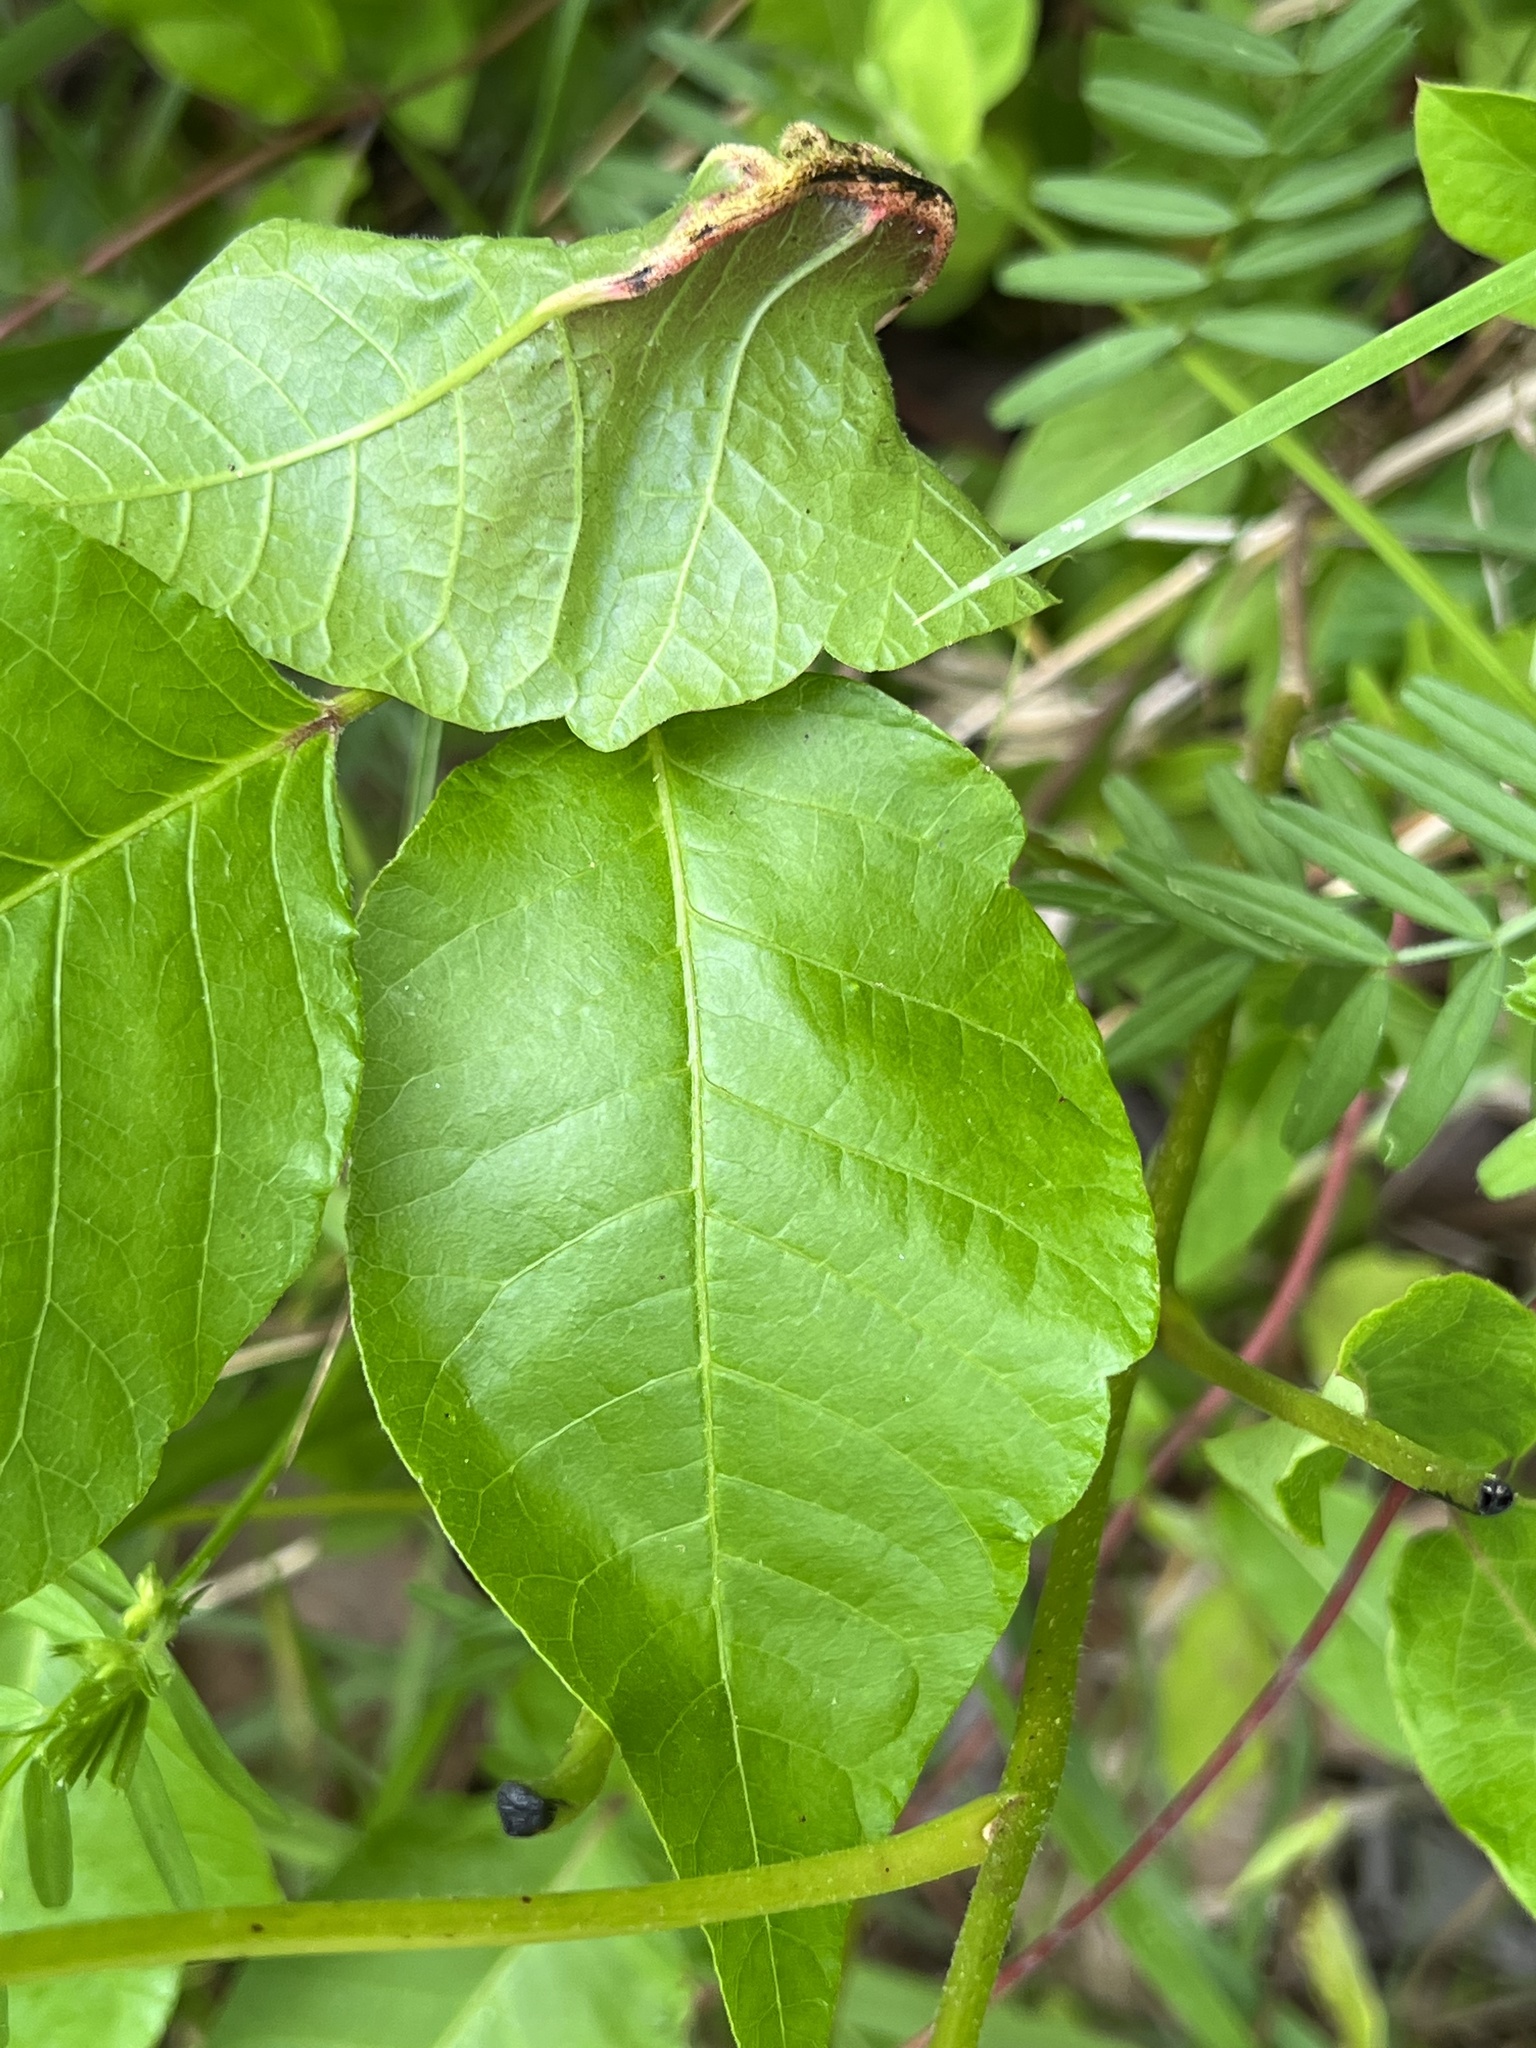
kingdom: Fungi
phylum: Basidiomycota
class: Pucciniomycetes
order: Pucciniales
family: Pileolariaceae
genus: Pileolaria
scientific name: Pileolaria brevipes
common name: Poison ivy rust
